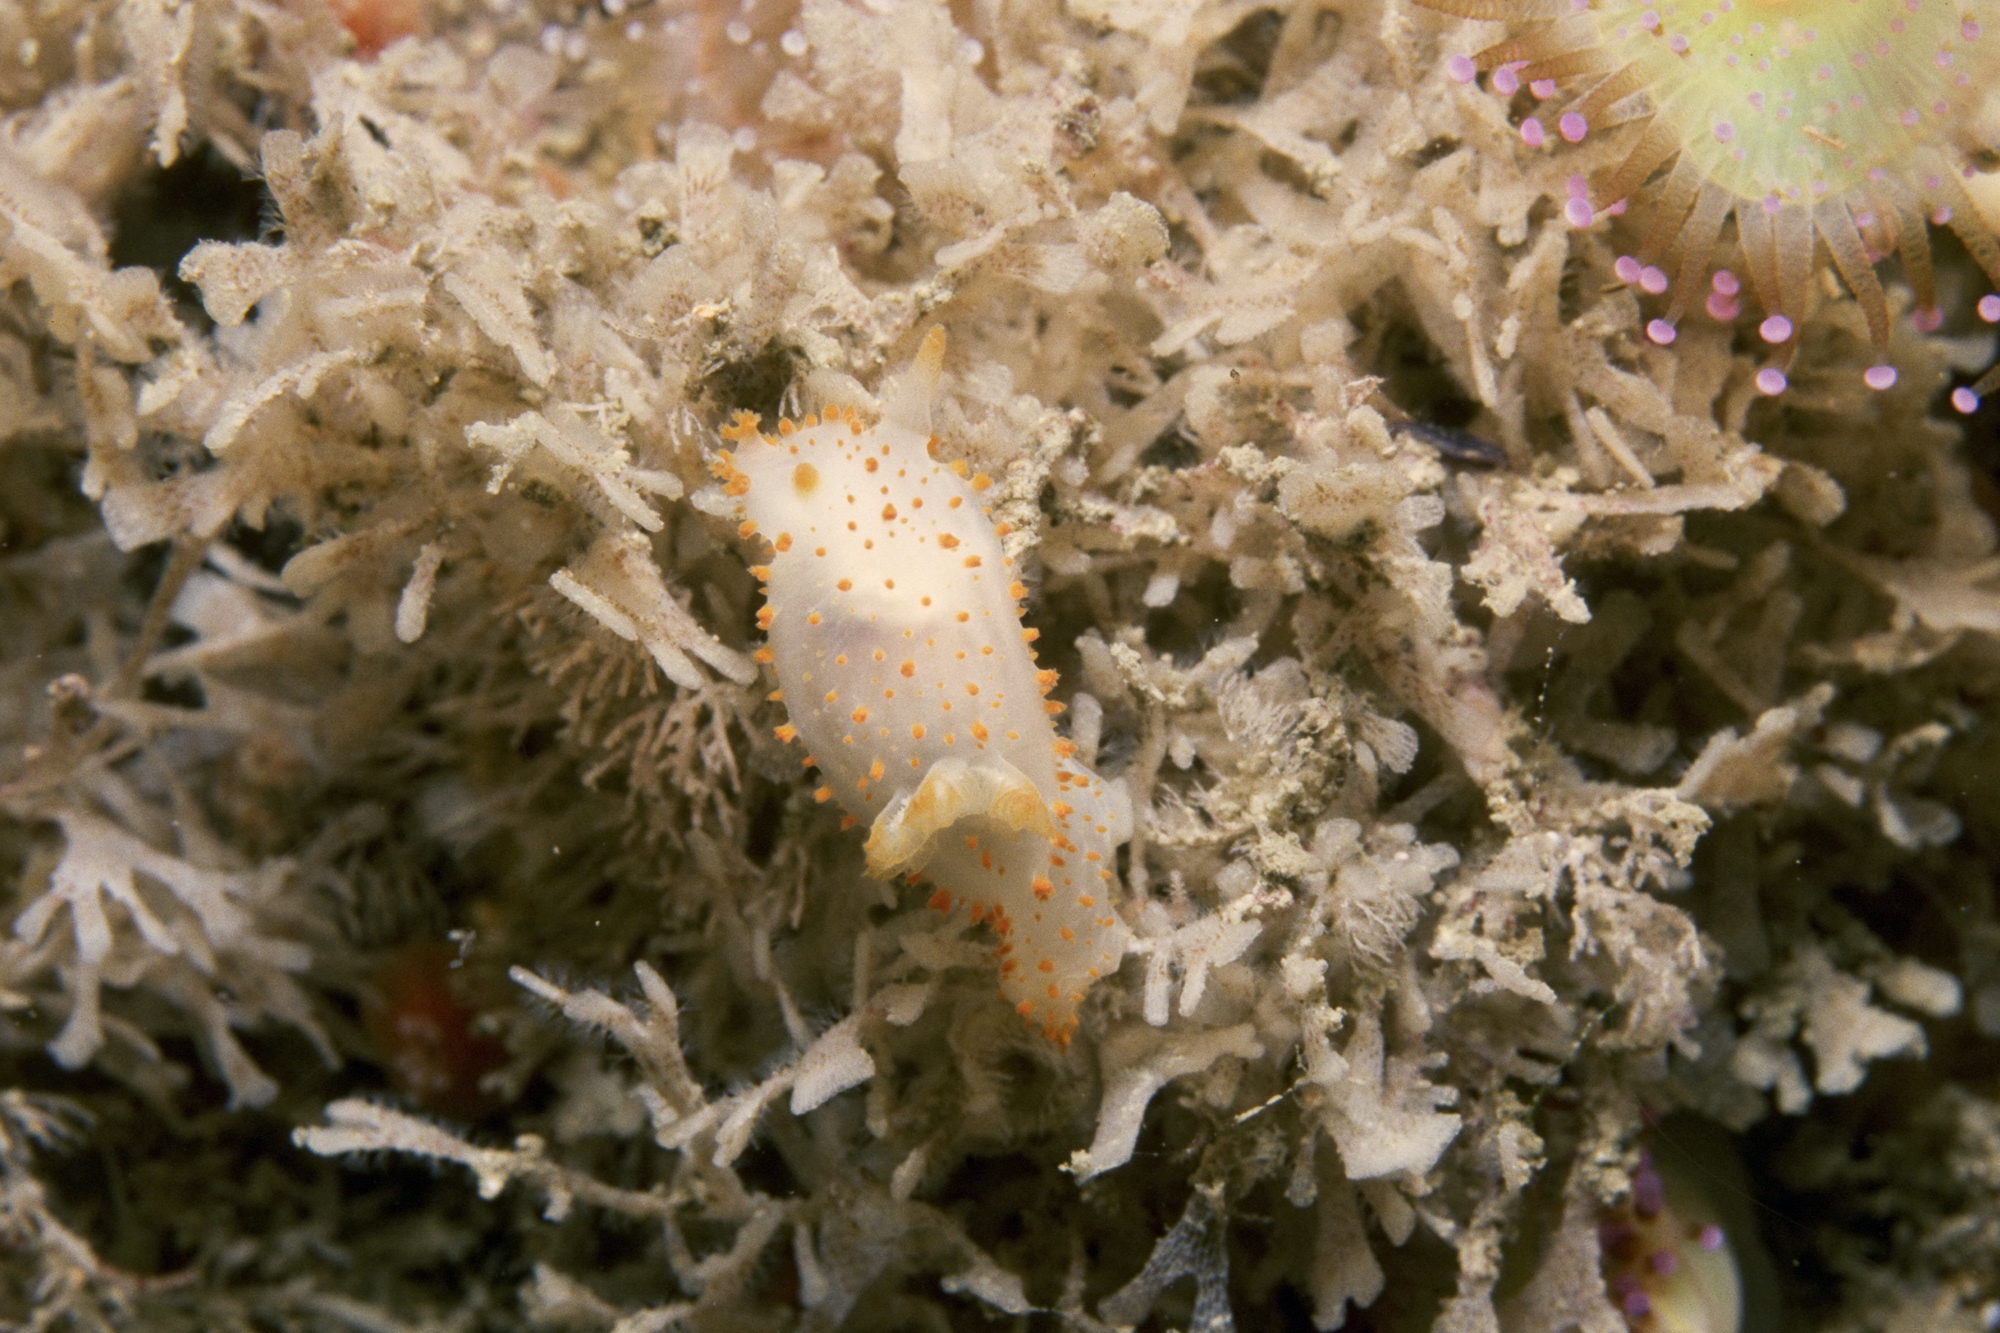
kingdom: Animalia
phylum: Mollusca
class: Gastropoda
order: Nudibranchia
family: Polyceridae
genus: Crimora
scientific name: Crimora papillata
